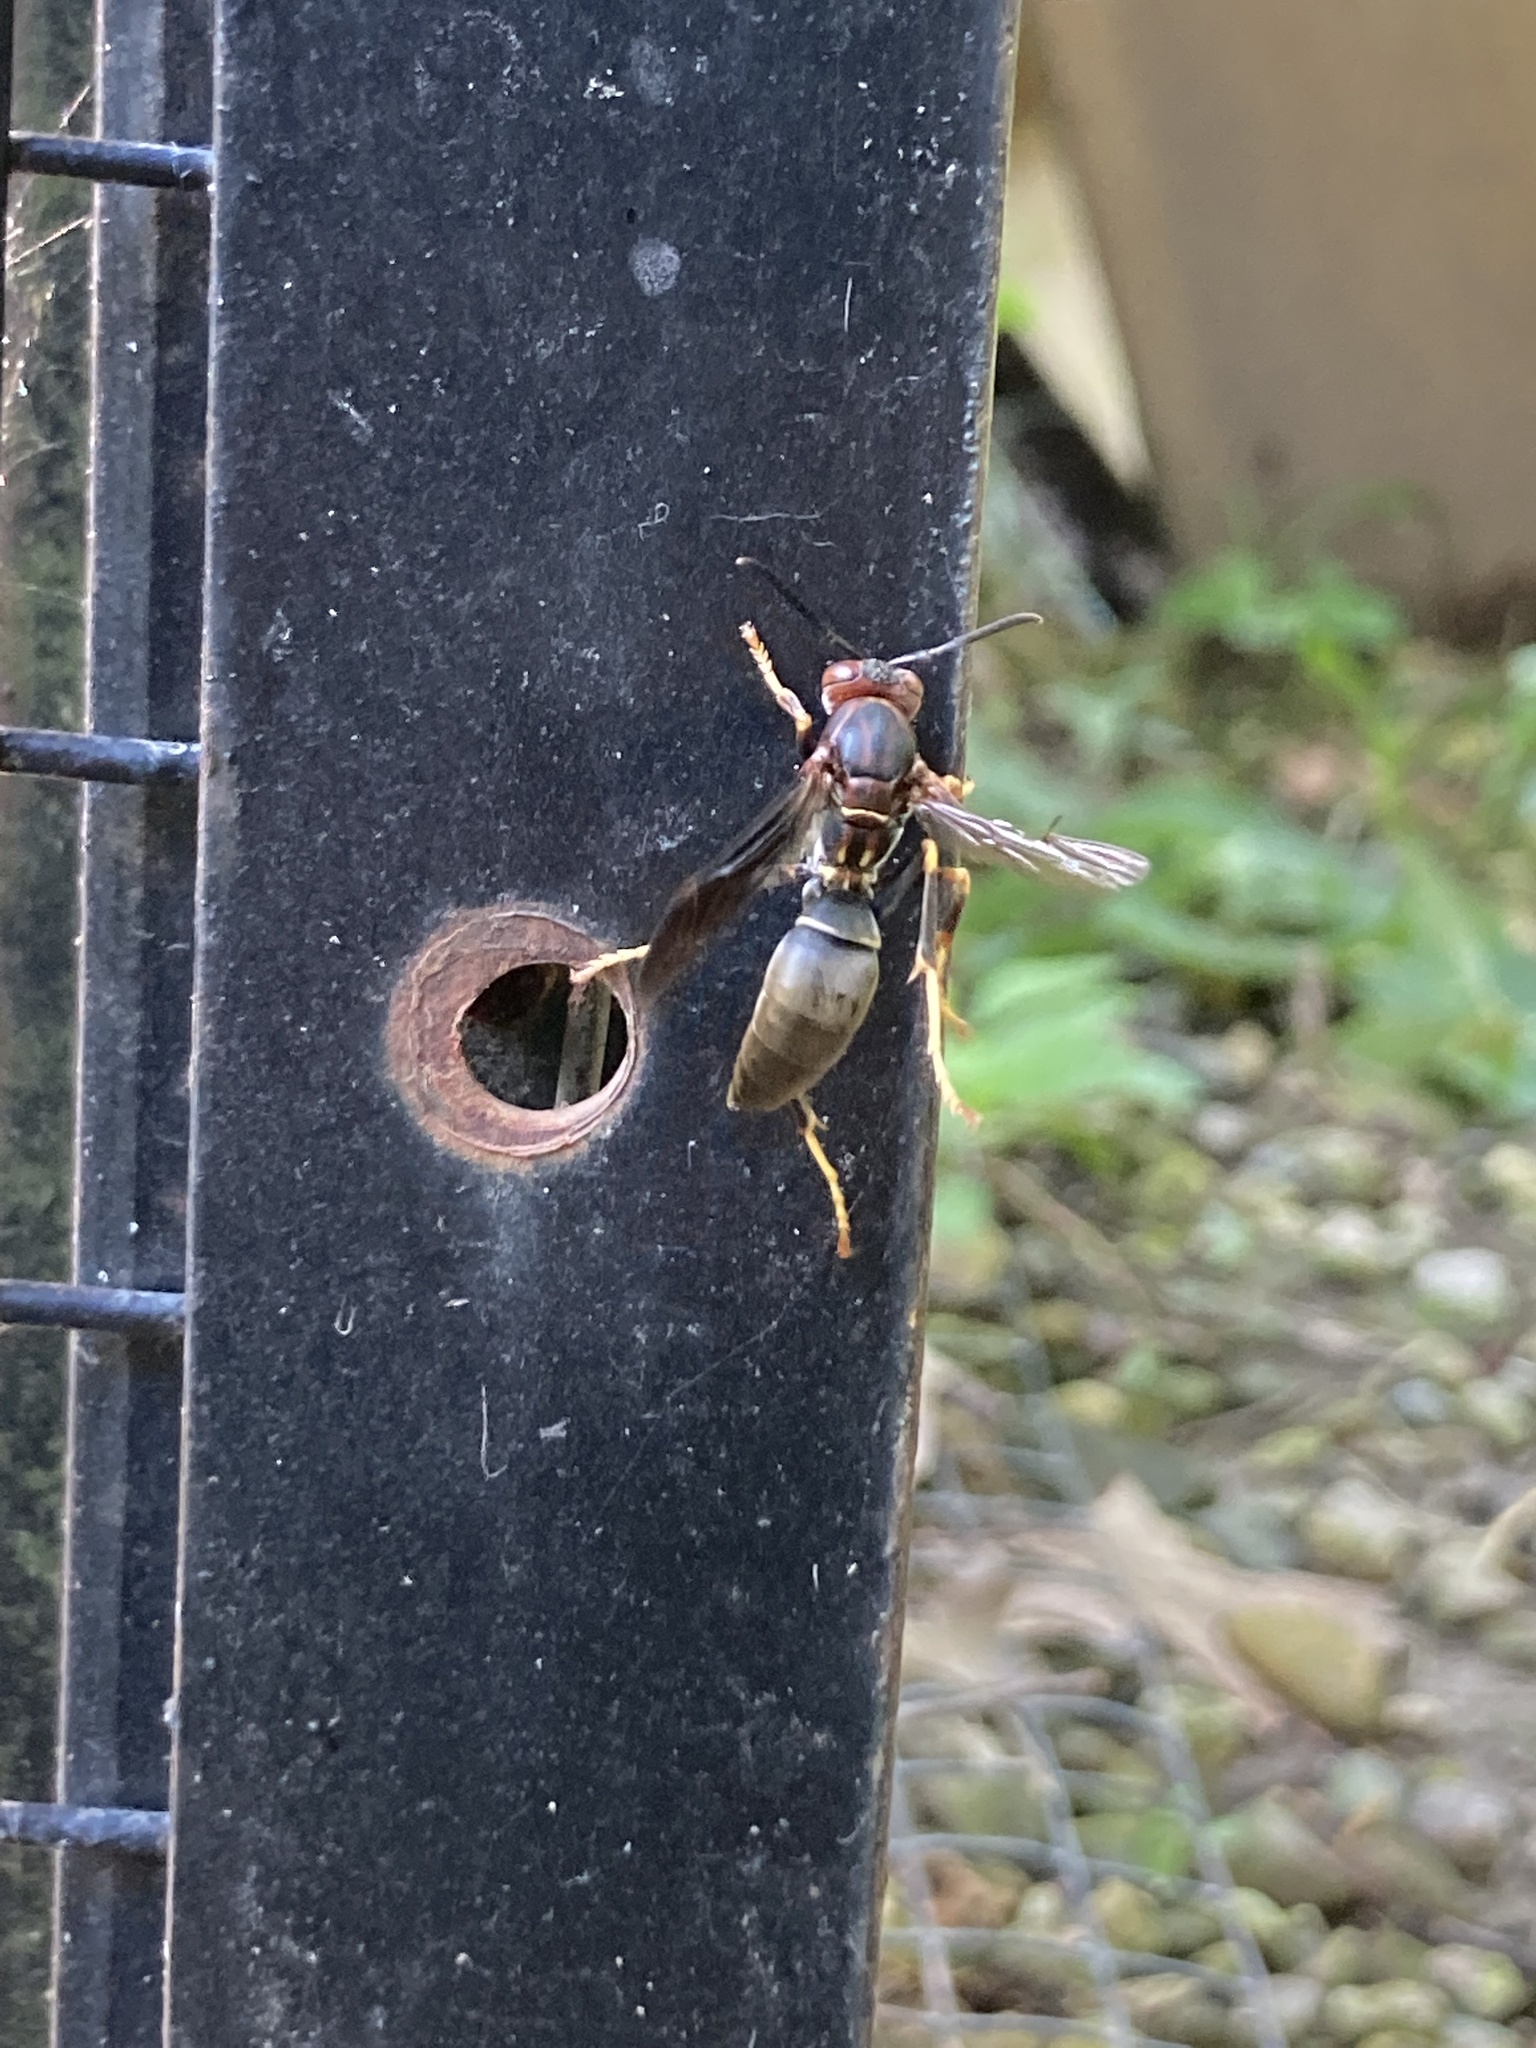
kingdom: Animalia
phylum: Arthropoda
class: Insecta
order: Hymenoptera
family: Eumenidae
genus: Polistes
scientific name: Polistes metricus
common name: Metric paper wasp
